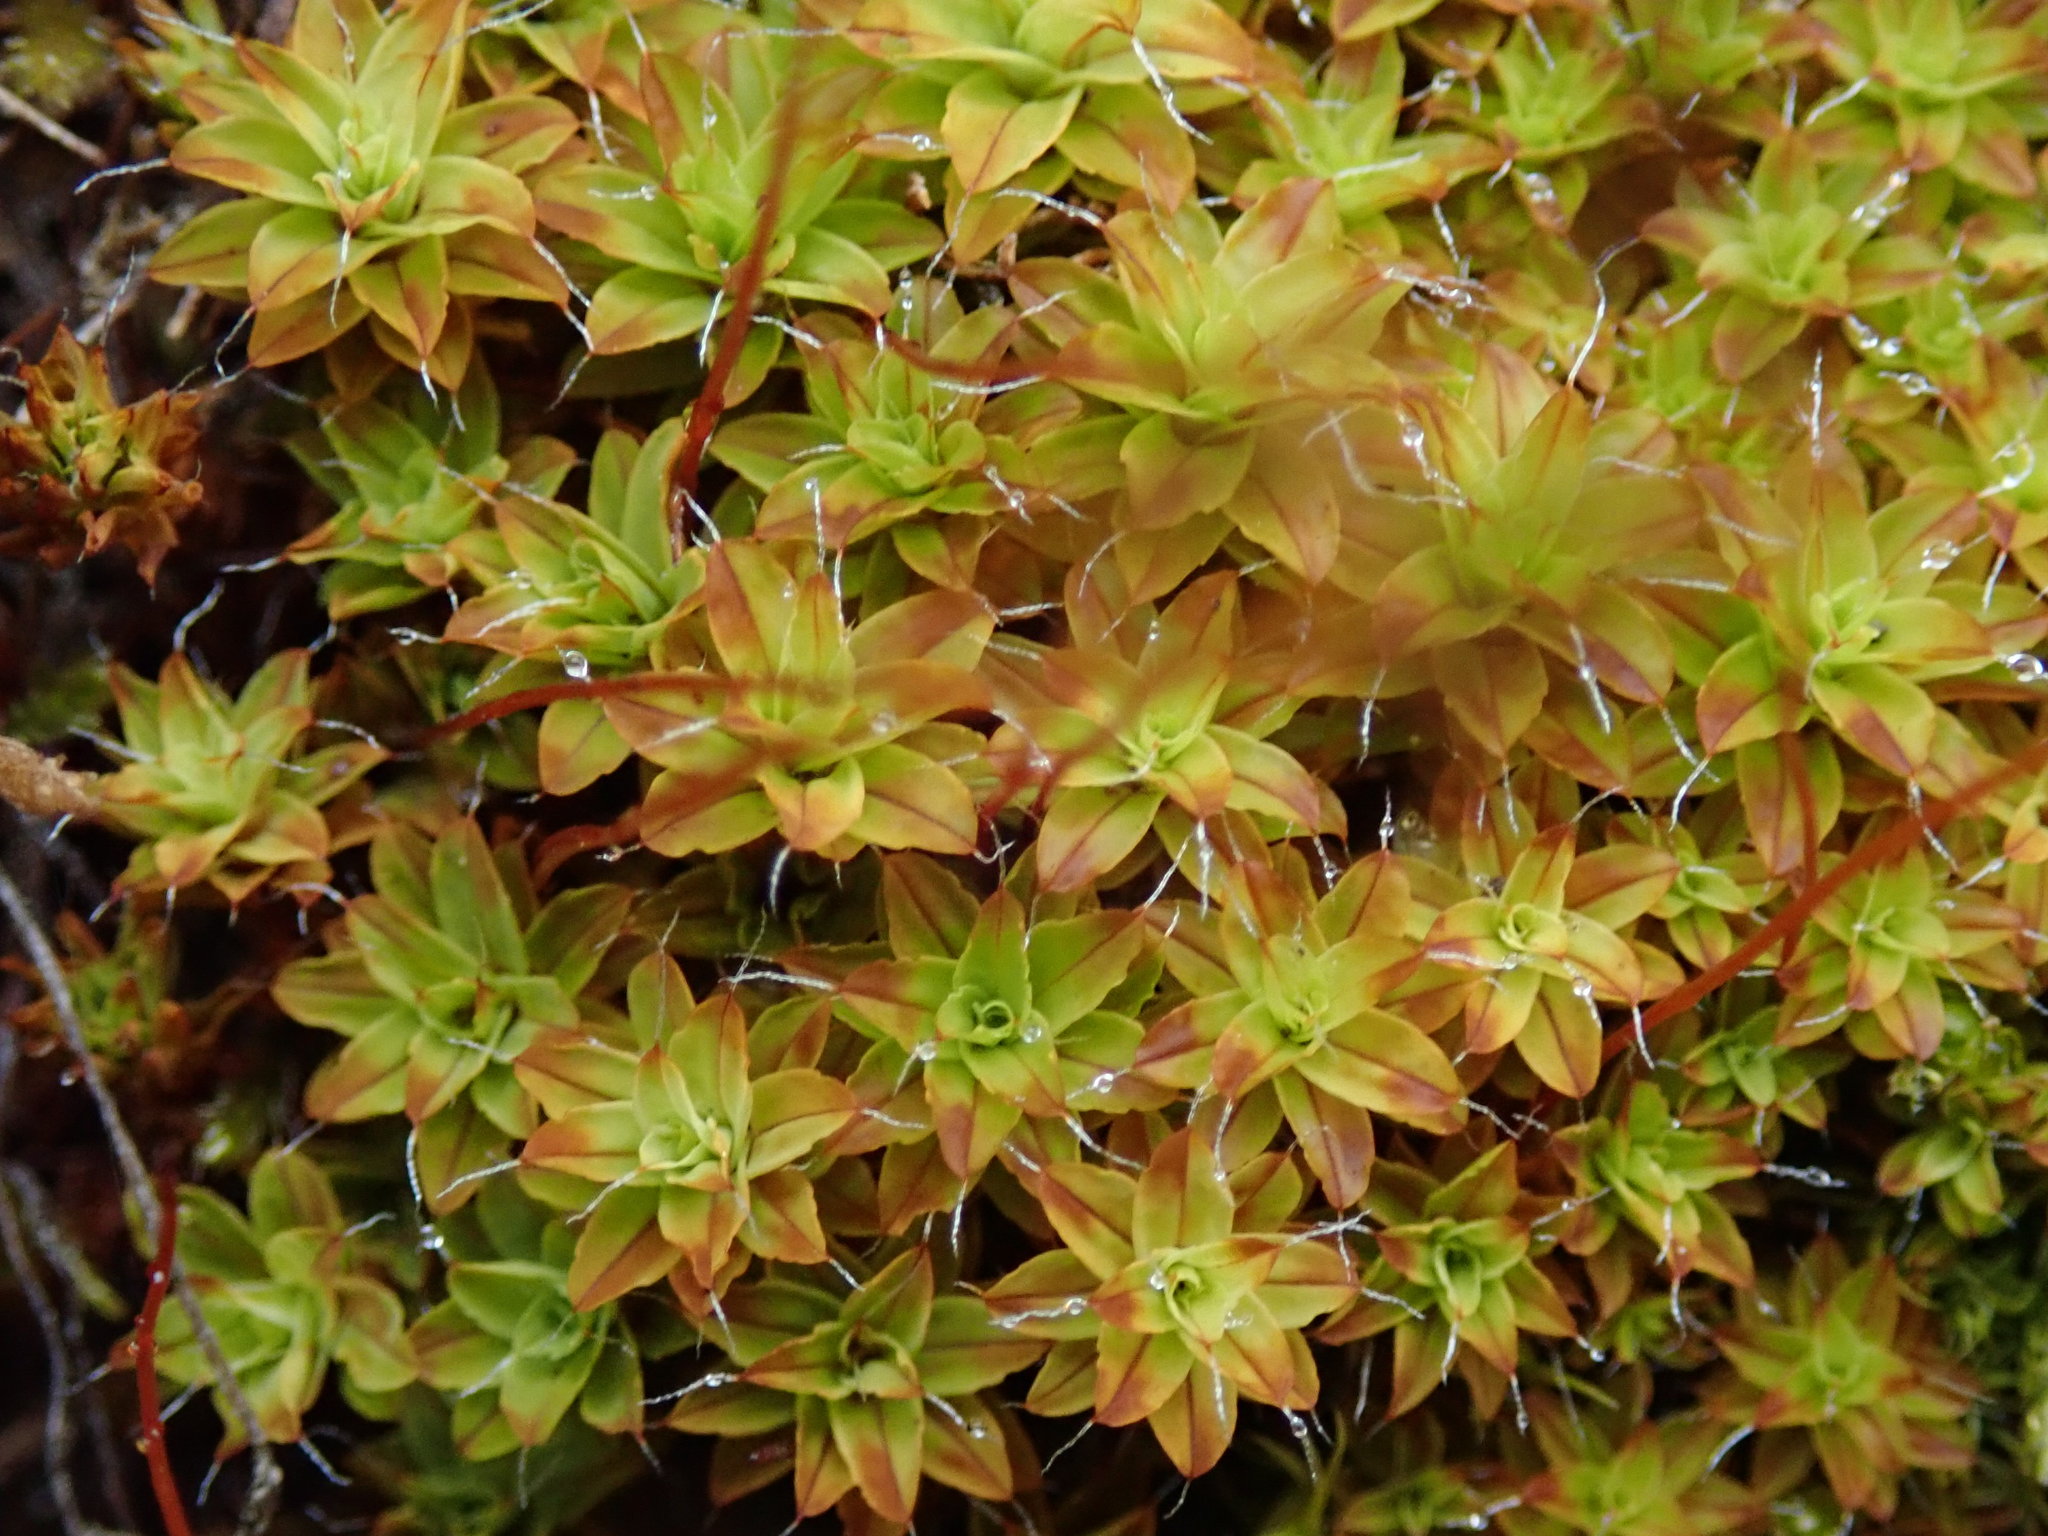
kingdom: Plantae
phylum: Bryophyta
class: Bryopsida
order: Pottiales
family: Pottiaceae
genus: Syntrichia
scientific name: Syntrichia ruralis
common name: Sidewalk screw moss
